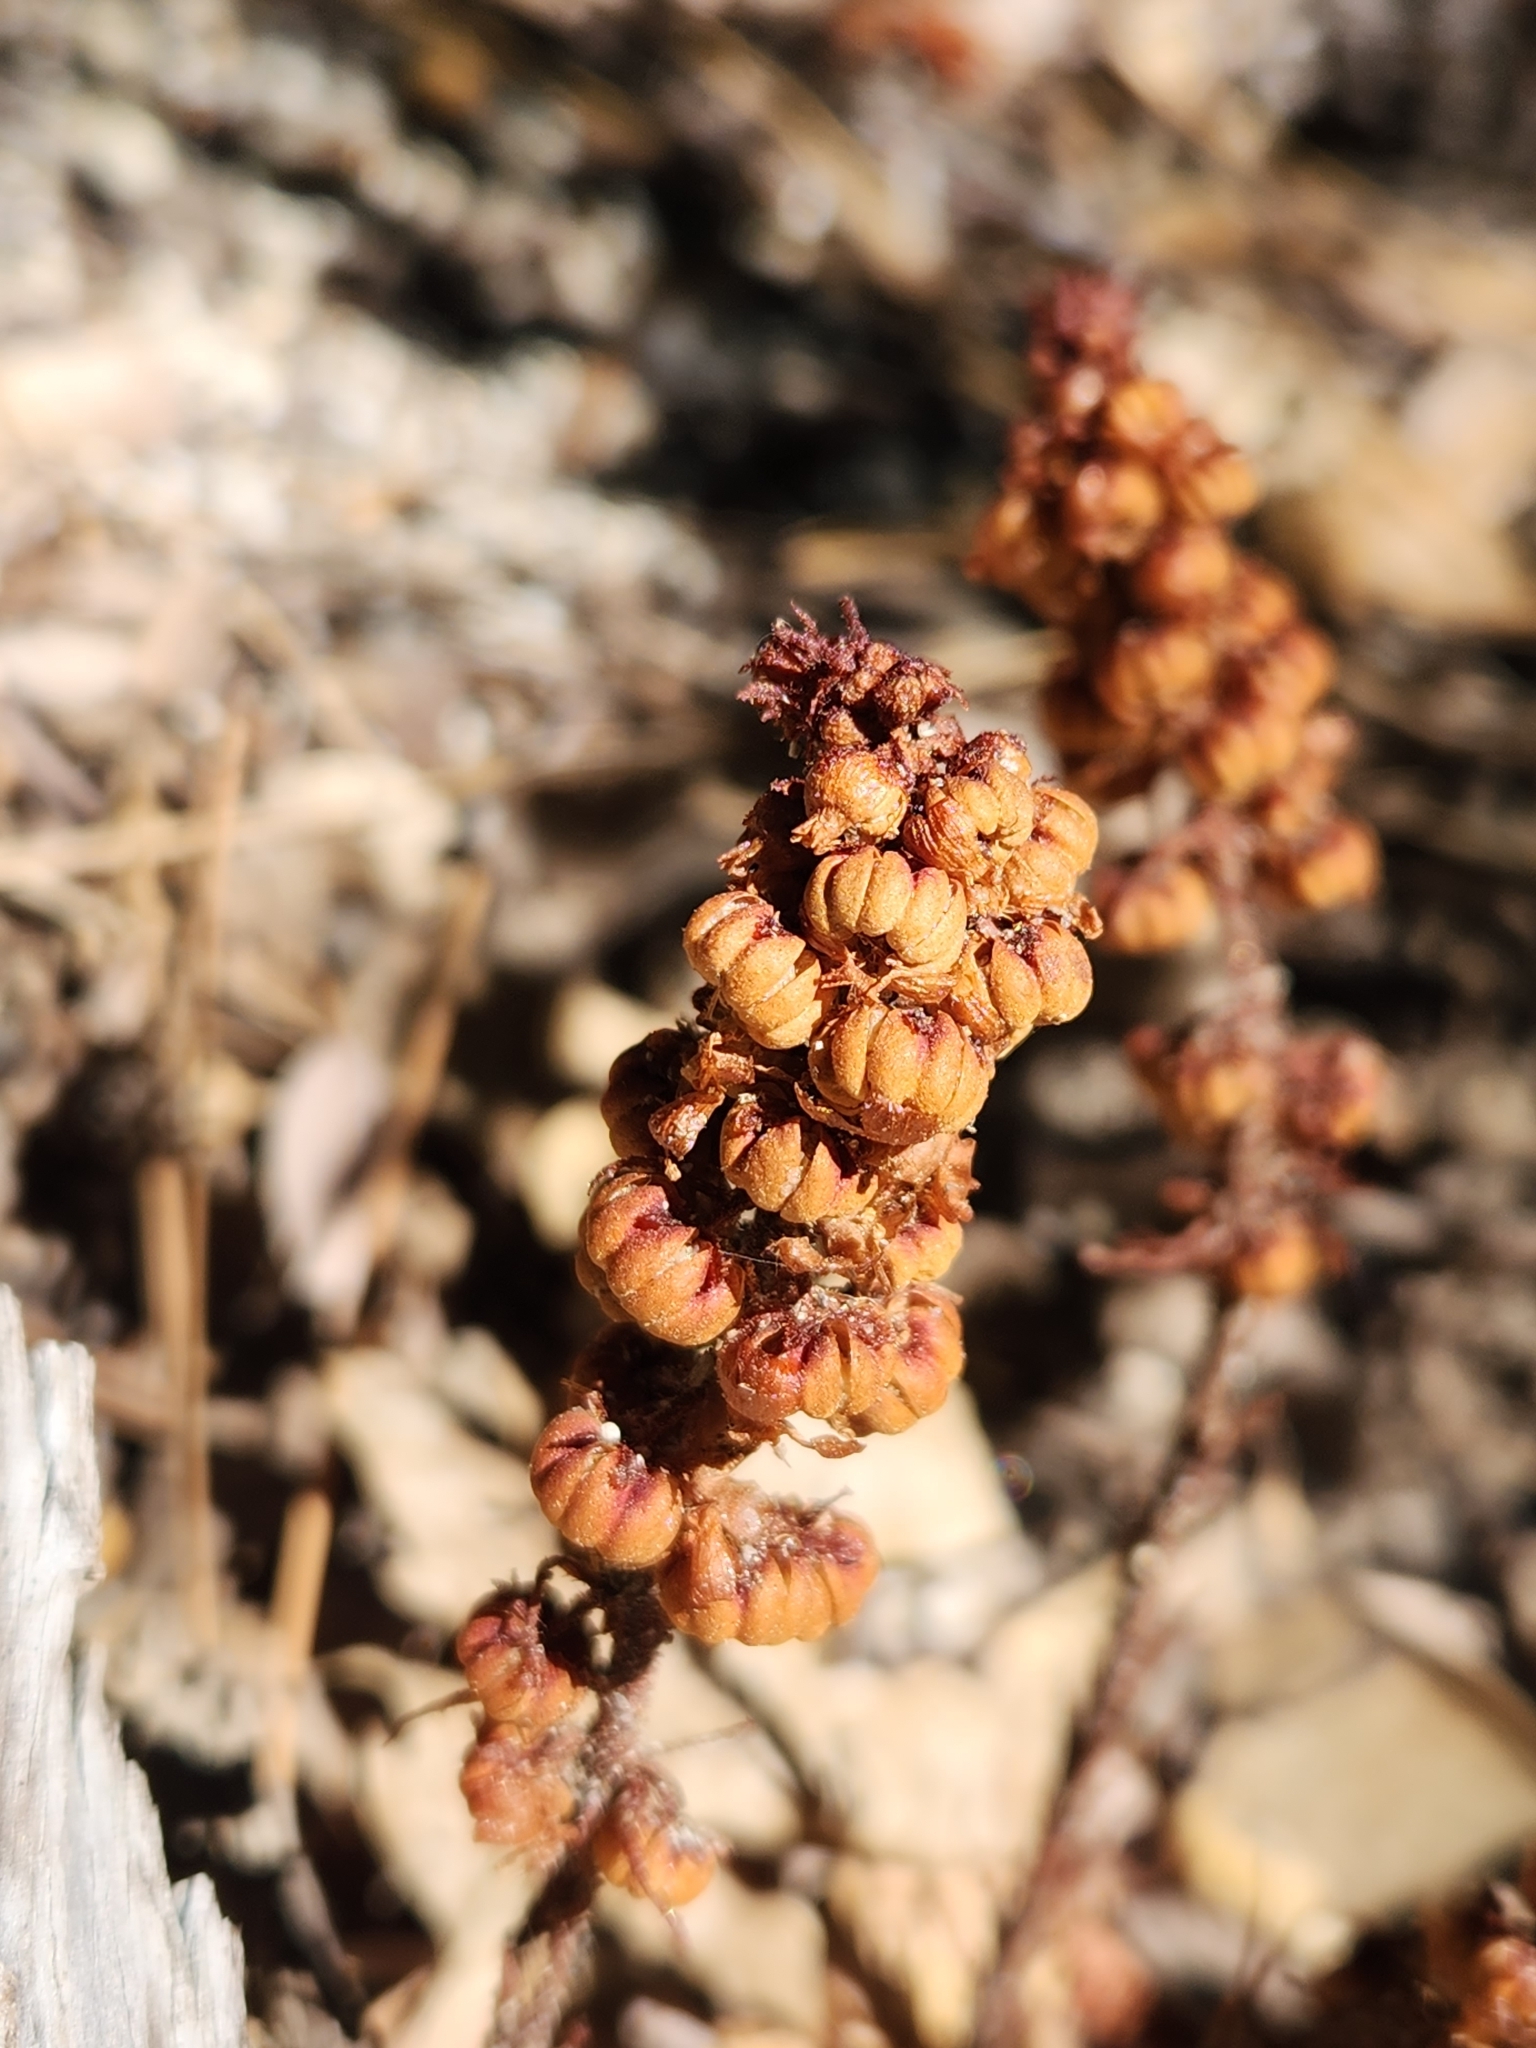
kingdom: Plantae
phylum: Tracheophyta
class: Magnoliopsida
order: Ericales
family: Ericaceae
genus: Pterospora
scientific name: Pterospora andromedea
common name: Giant bird's-nest
